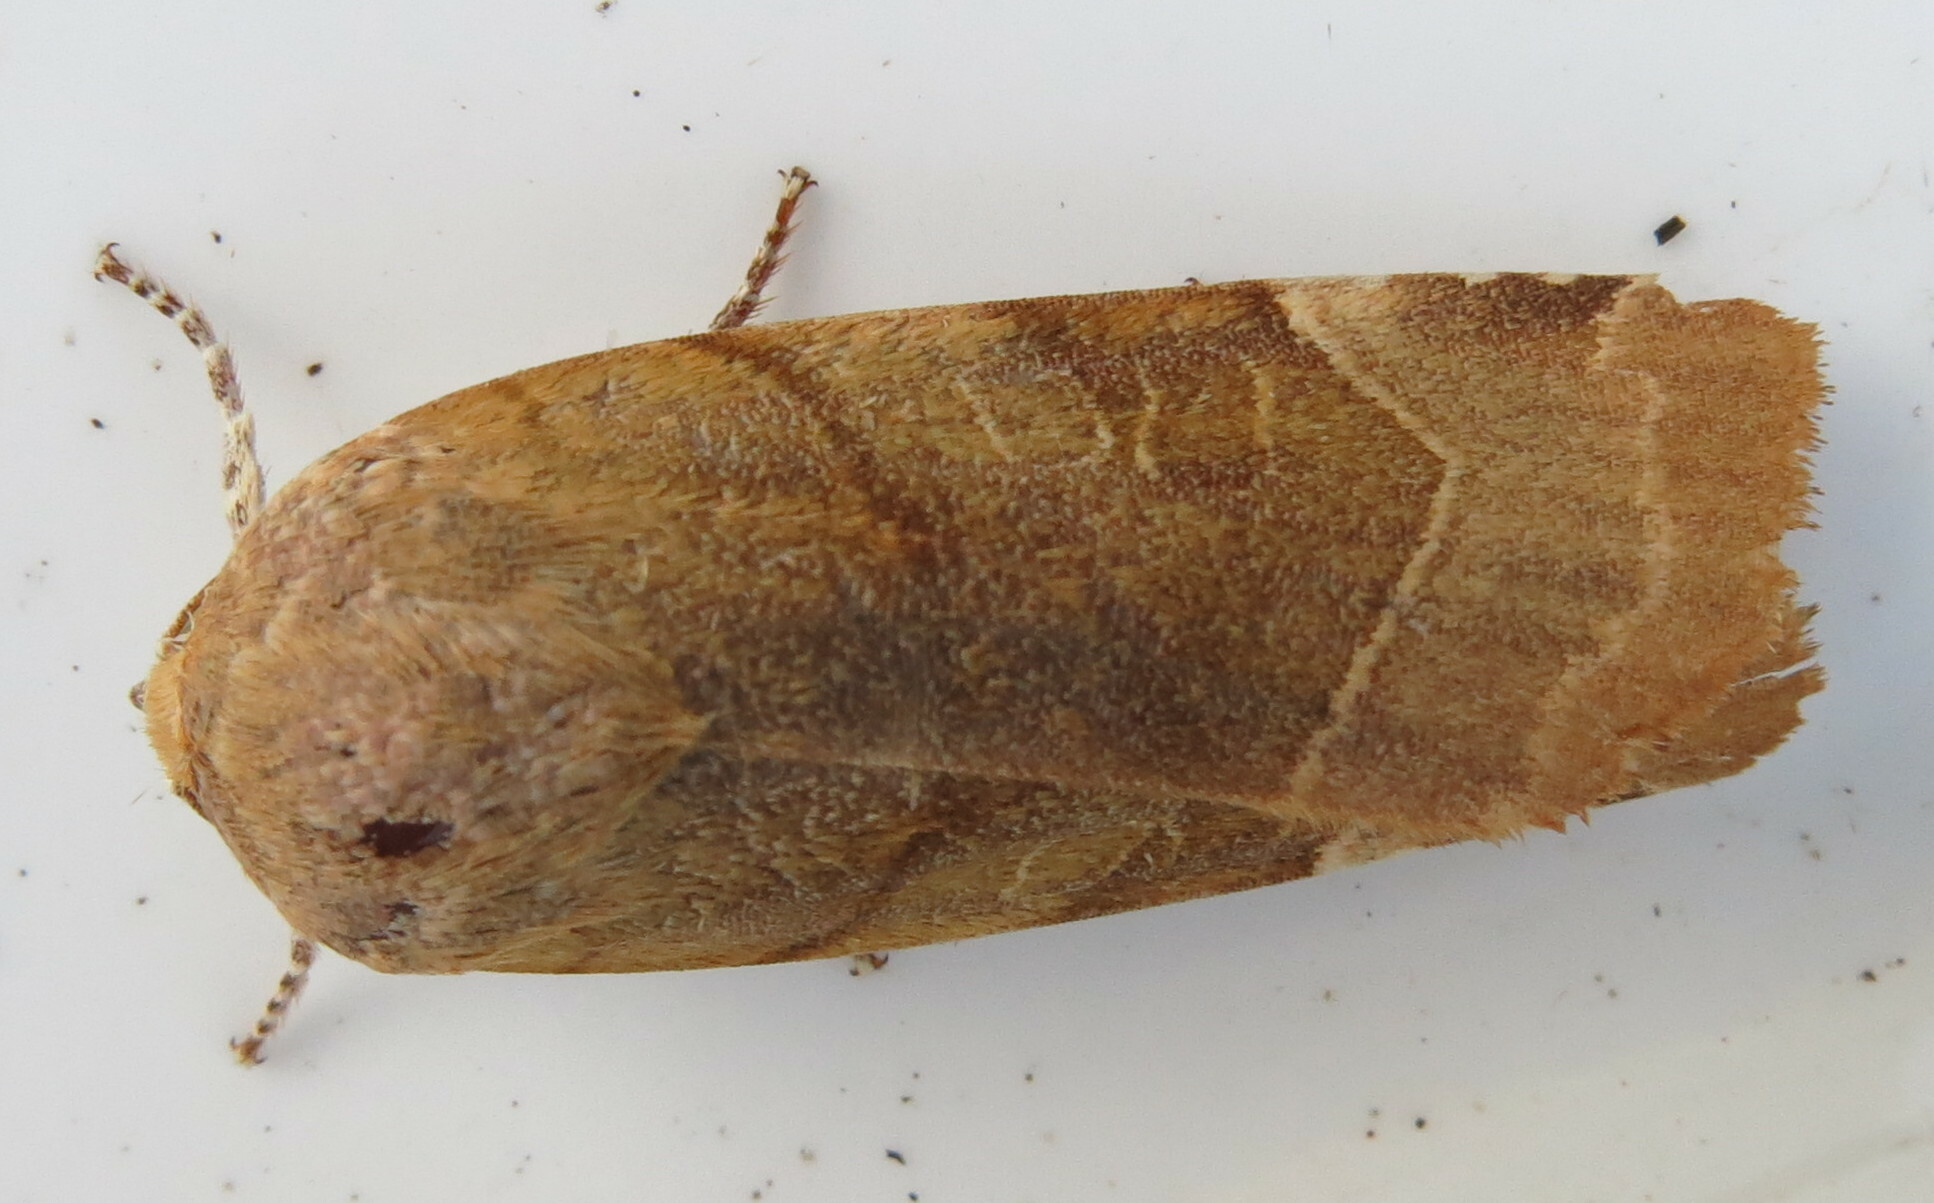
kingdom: Animalia
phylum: Arthropoda
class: Insecta
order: Lepidoptera
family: Noctuidae
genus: Noctua
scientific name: Noctua fimbriata
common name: Broad-bordered yellow underwing
